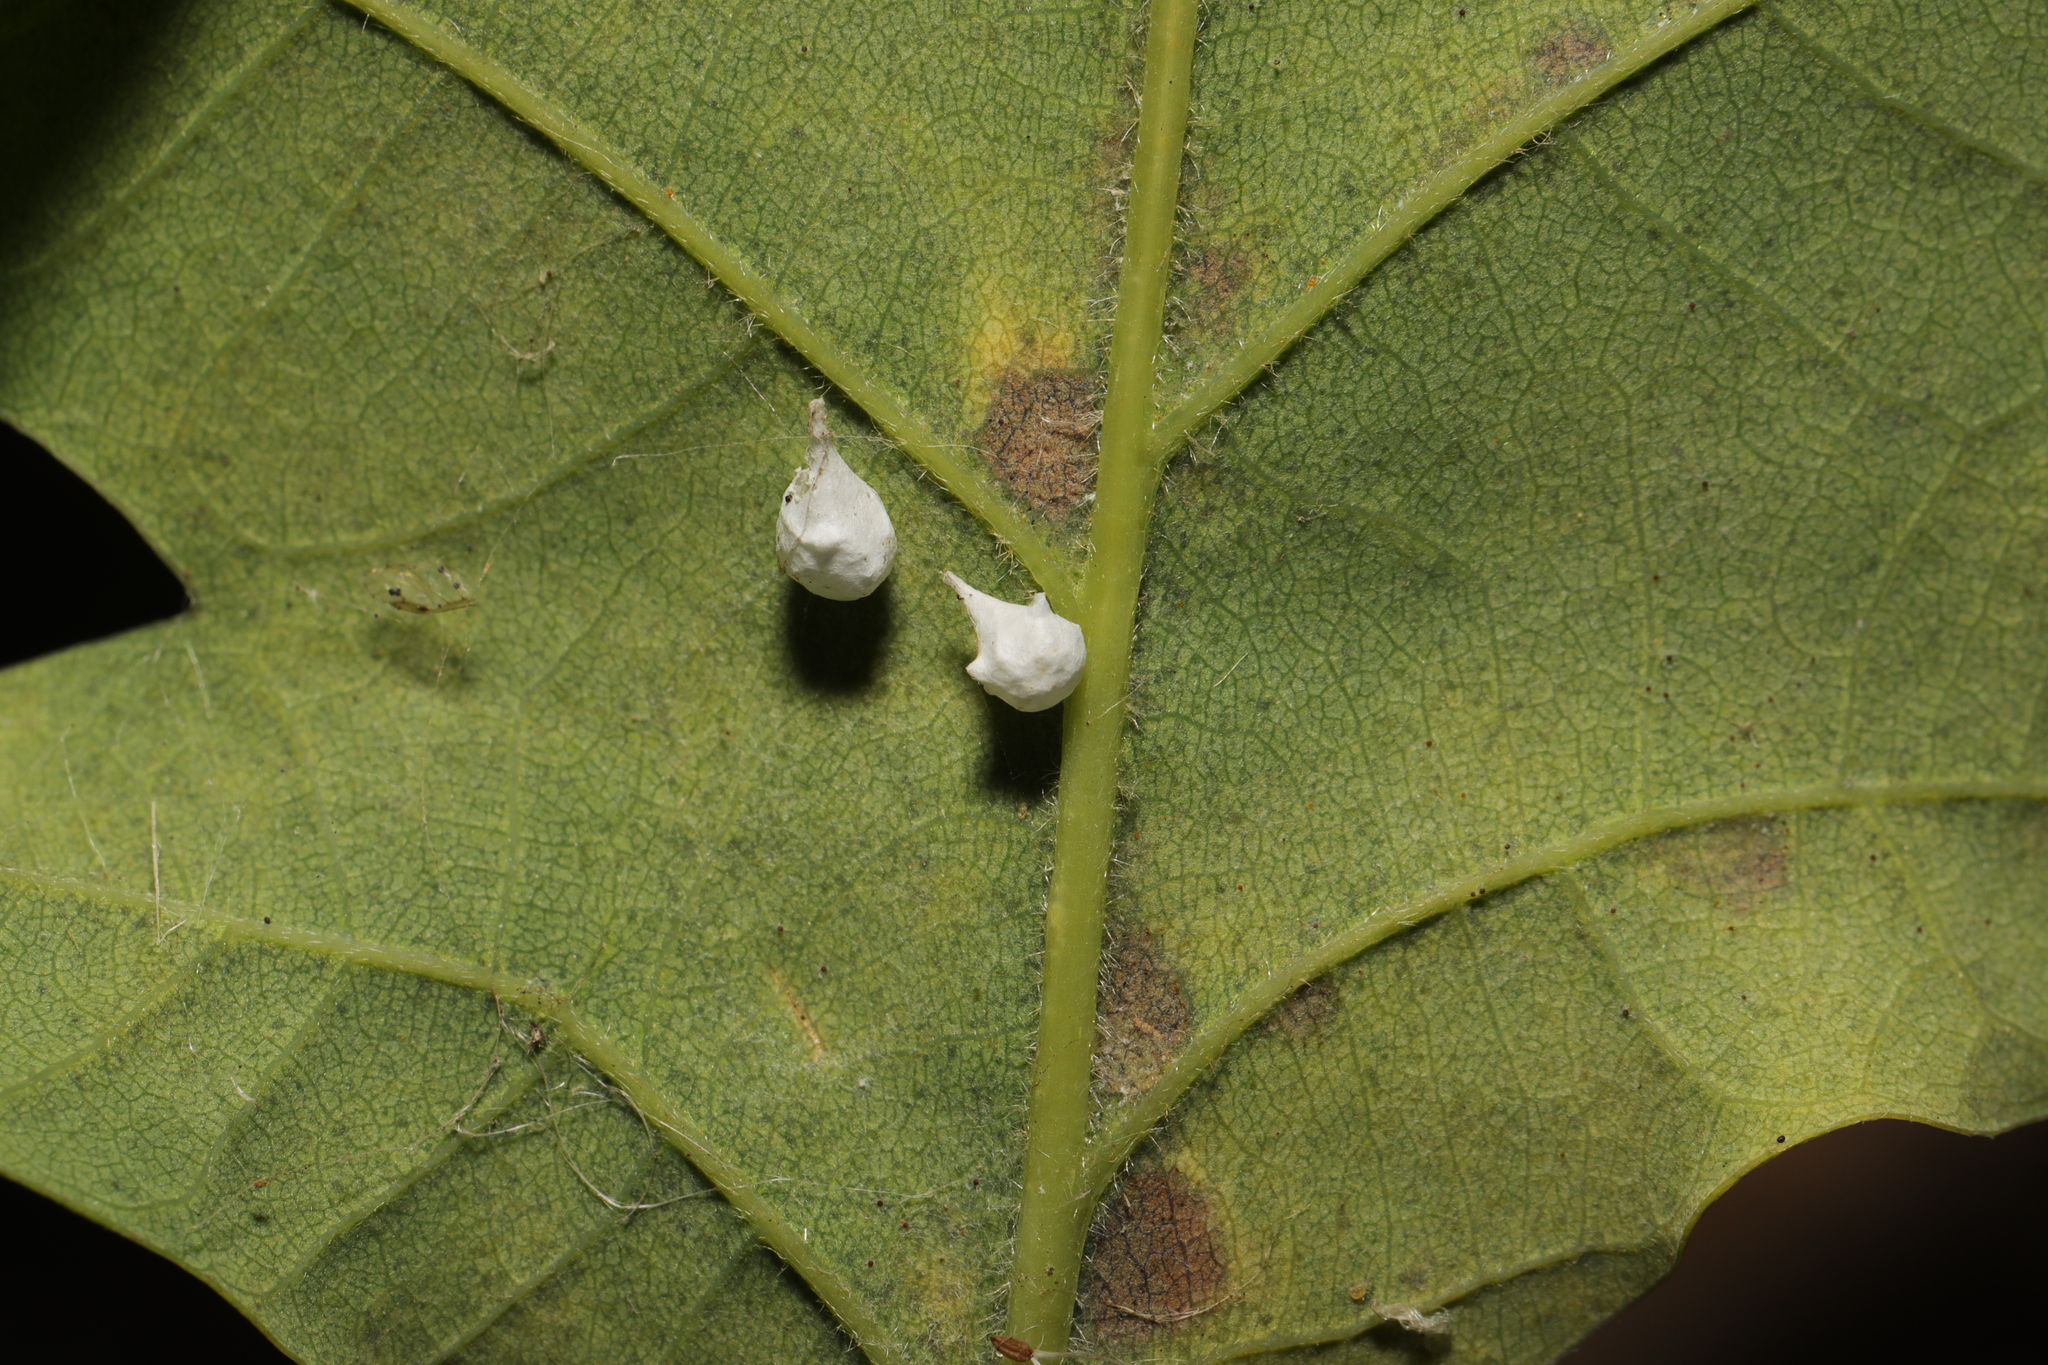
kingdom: Animalia
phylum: Arthropoda
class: Arachnida
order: Araneae
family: Theridiidae
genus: Paidiscura
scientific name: Paidiscura pallens
